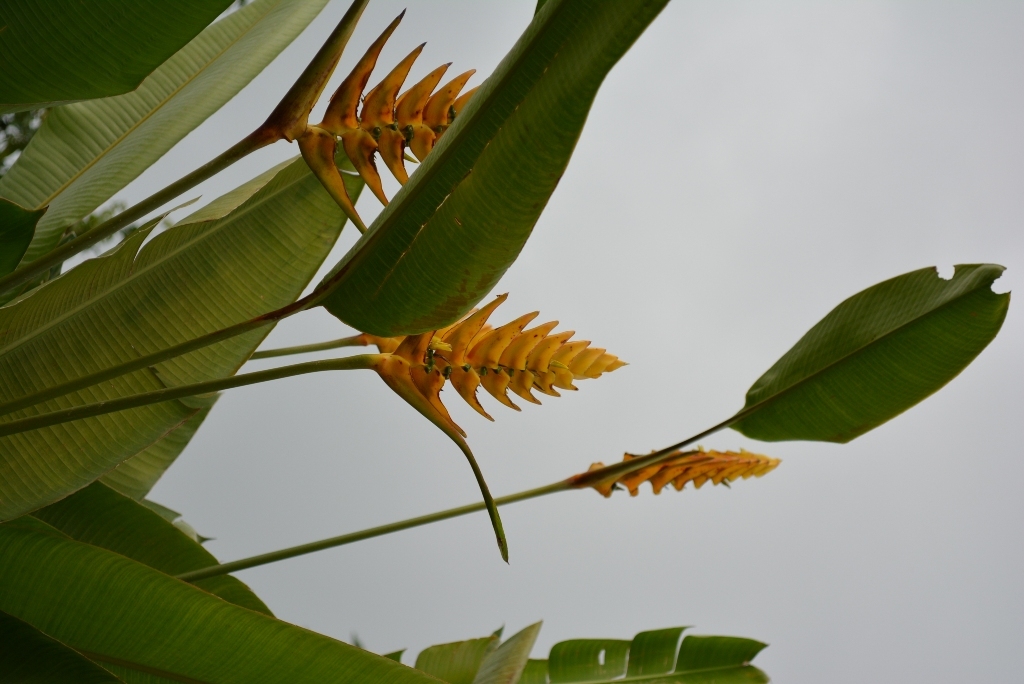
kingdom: Plantae
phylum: Tracheophyta
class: Liliopsida
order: Zingiberales
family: Heliconiaceae
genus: Heliconia
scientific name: Heliconia librata
